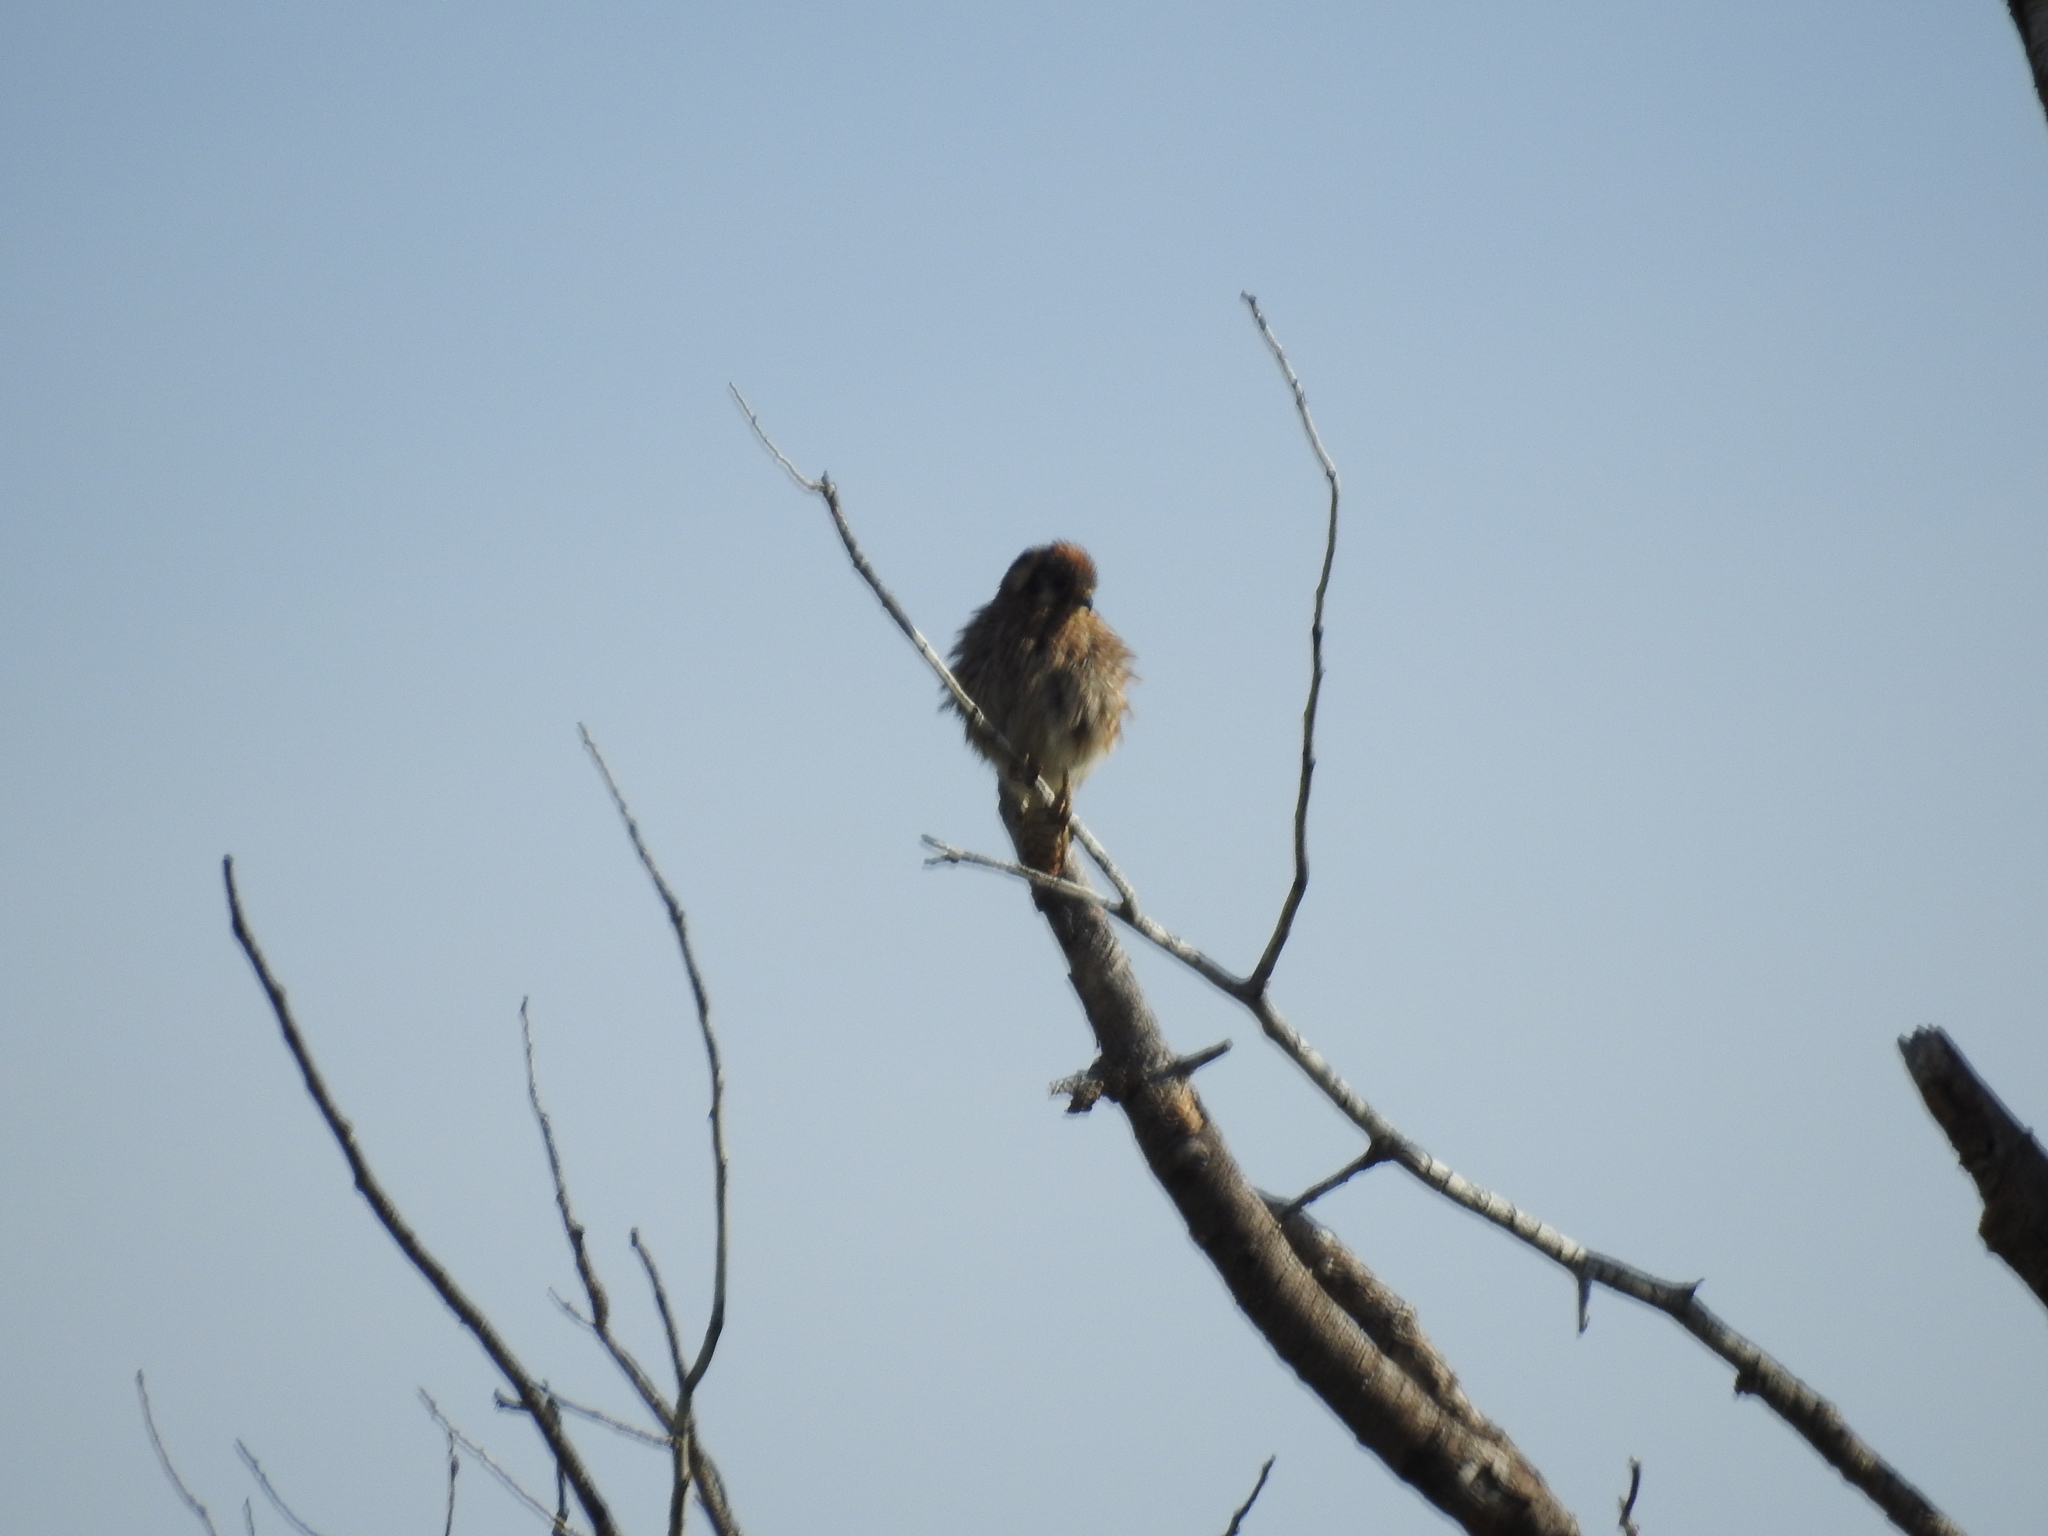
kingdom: Animalia
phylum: Chordata
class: Aves
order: Falconiformes
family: Falconidae
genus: Falco
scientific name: Falco sparverius
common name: American kestrel
